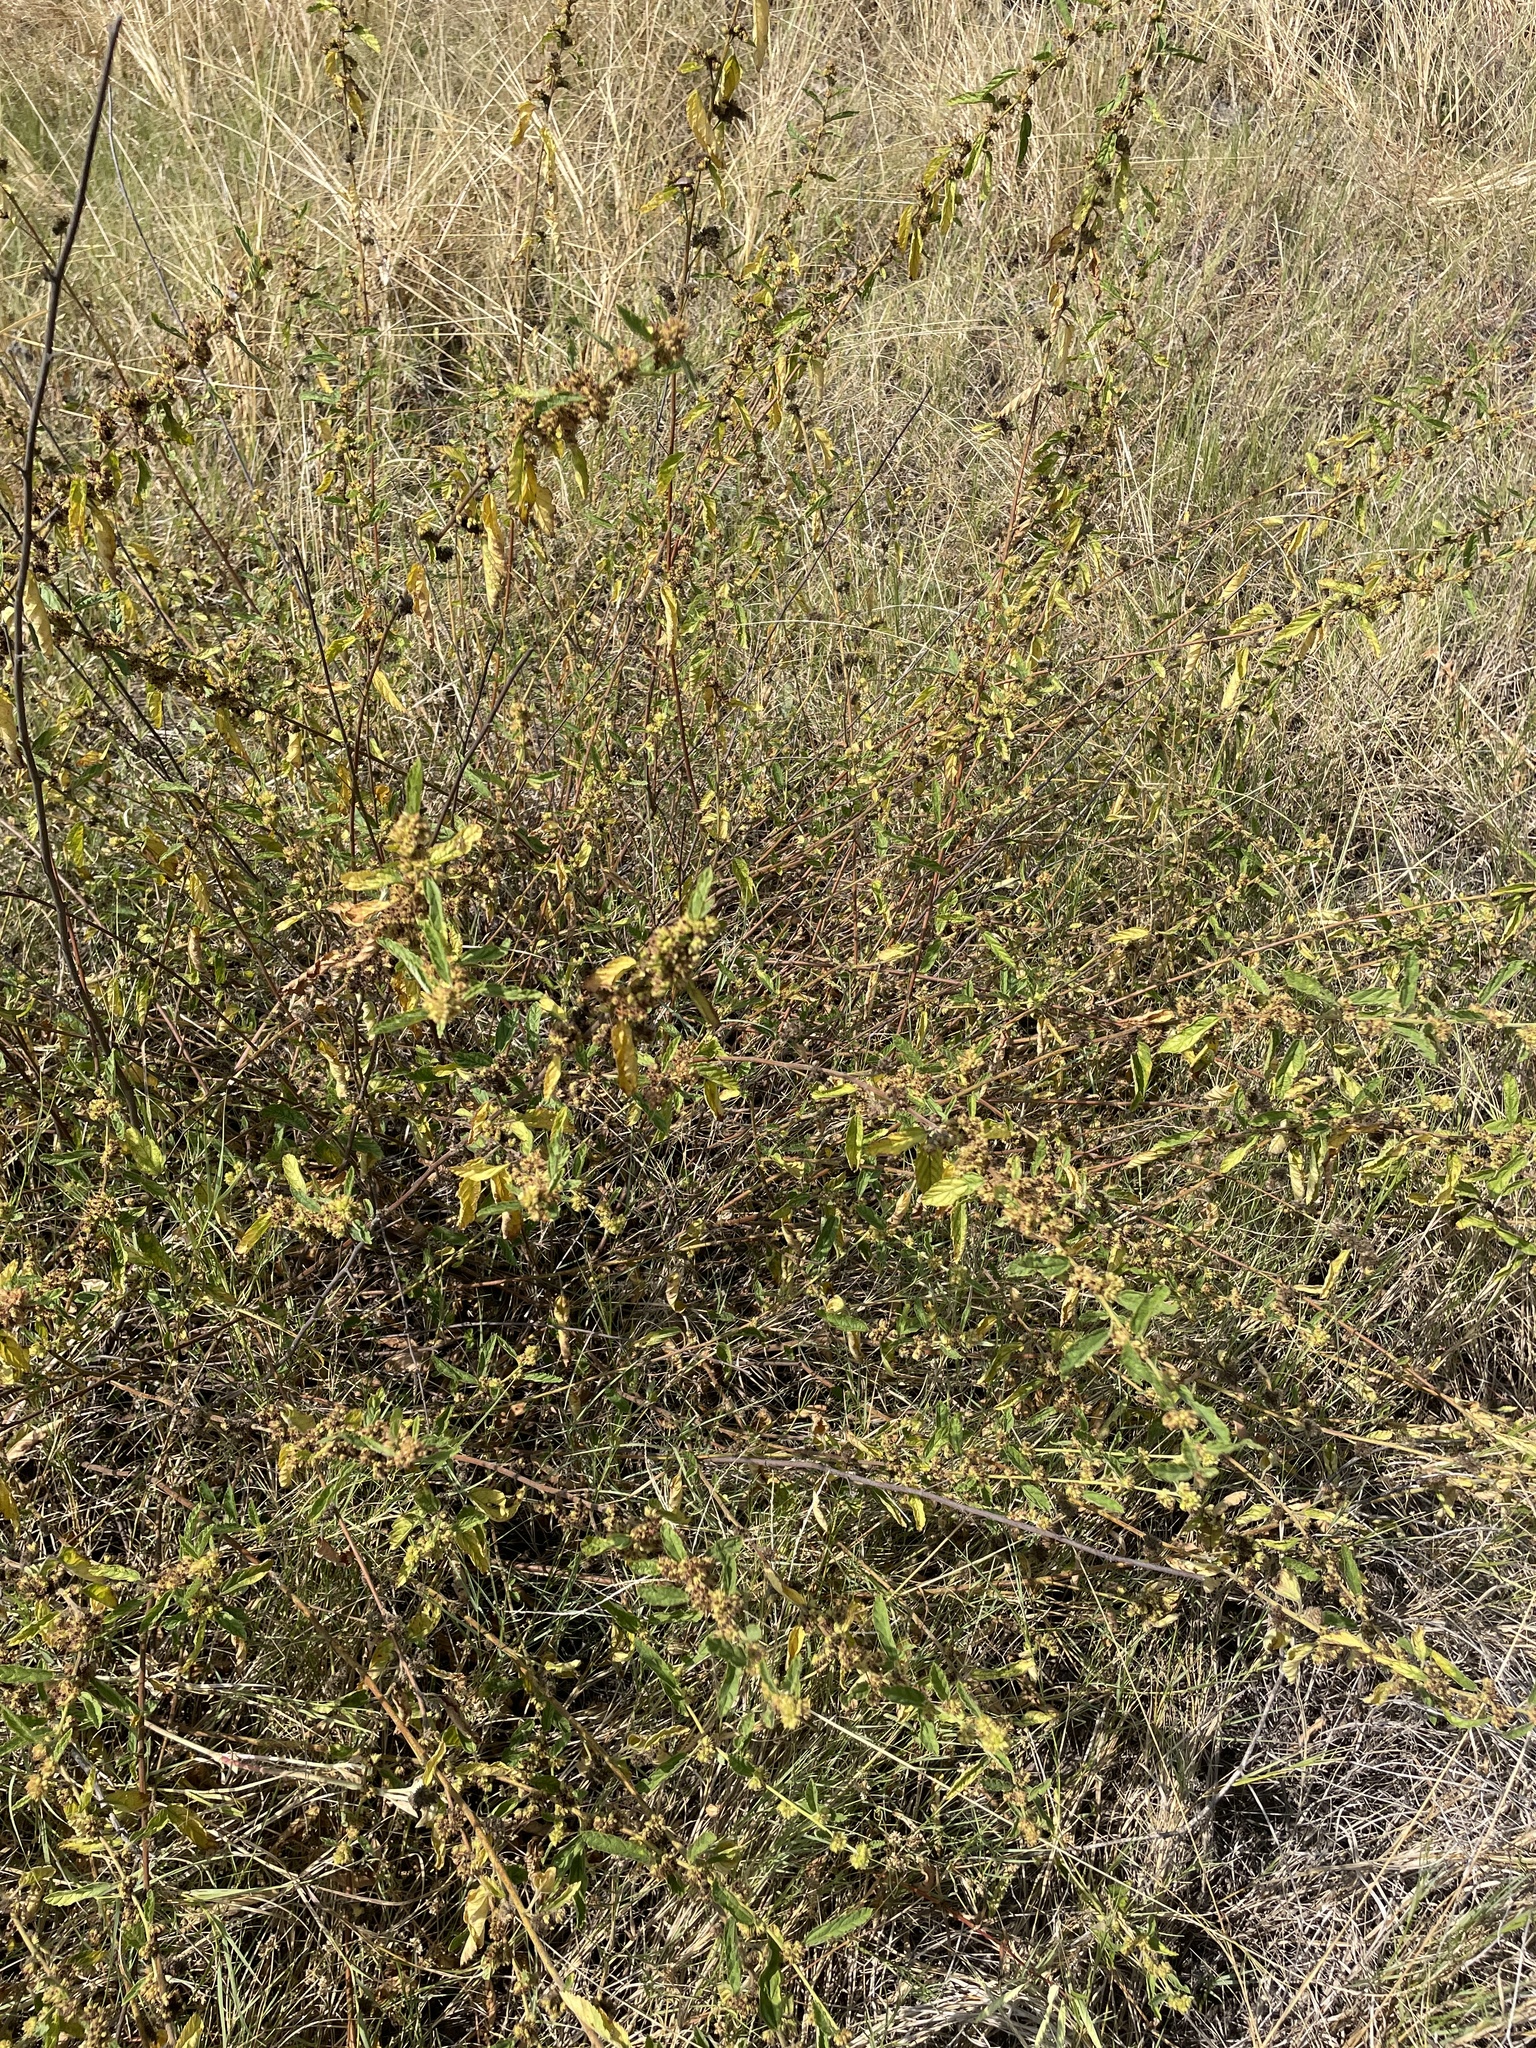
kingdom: Plantae
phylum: Tracheophyta
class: Magnoliopsida
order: Malvales
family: Malvaceae
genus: Waltheria
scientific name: Waltheria indica
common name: Leather-coat
